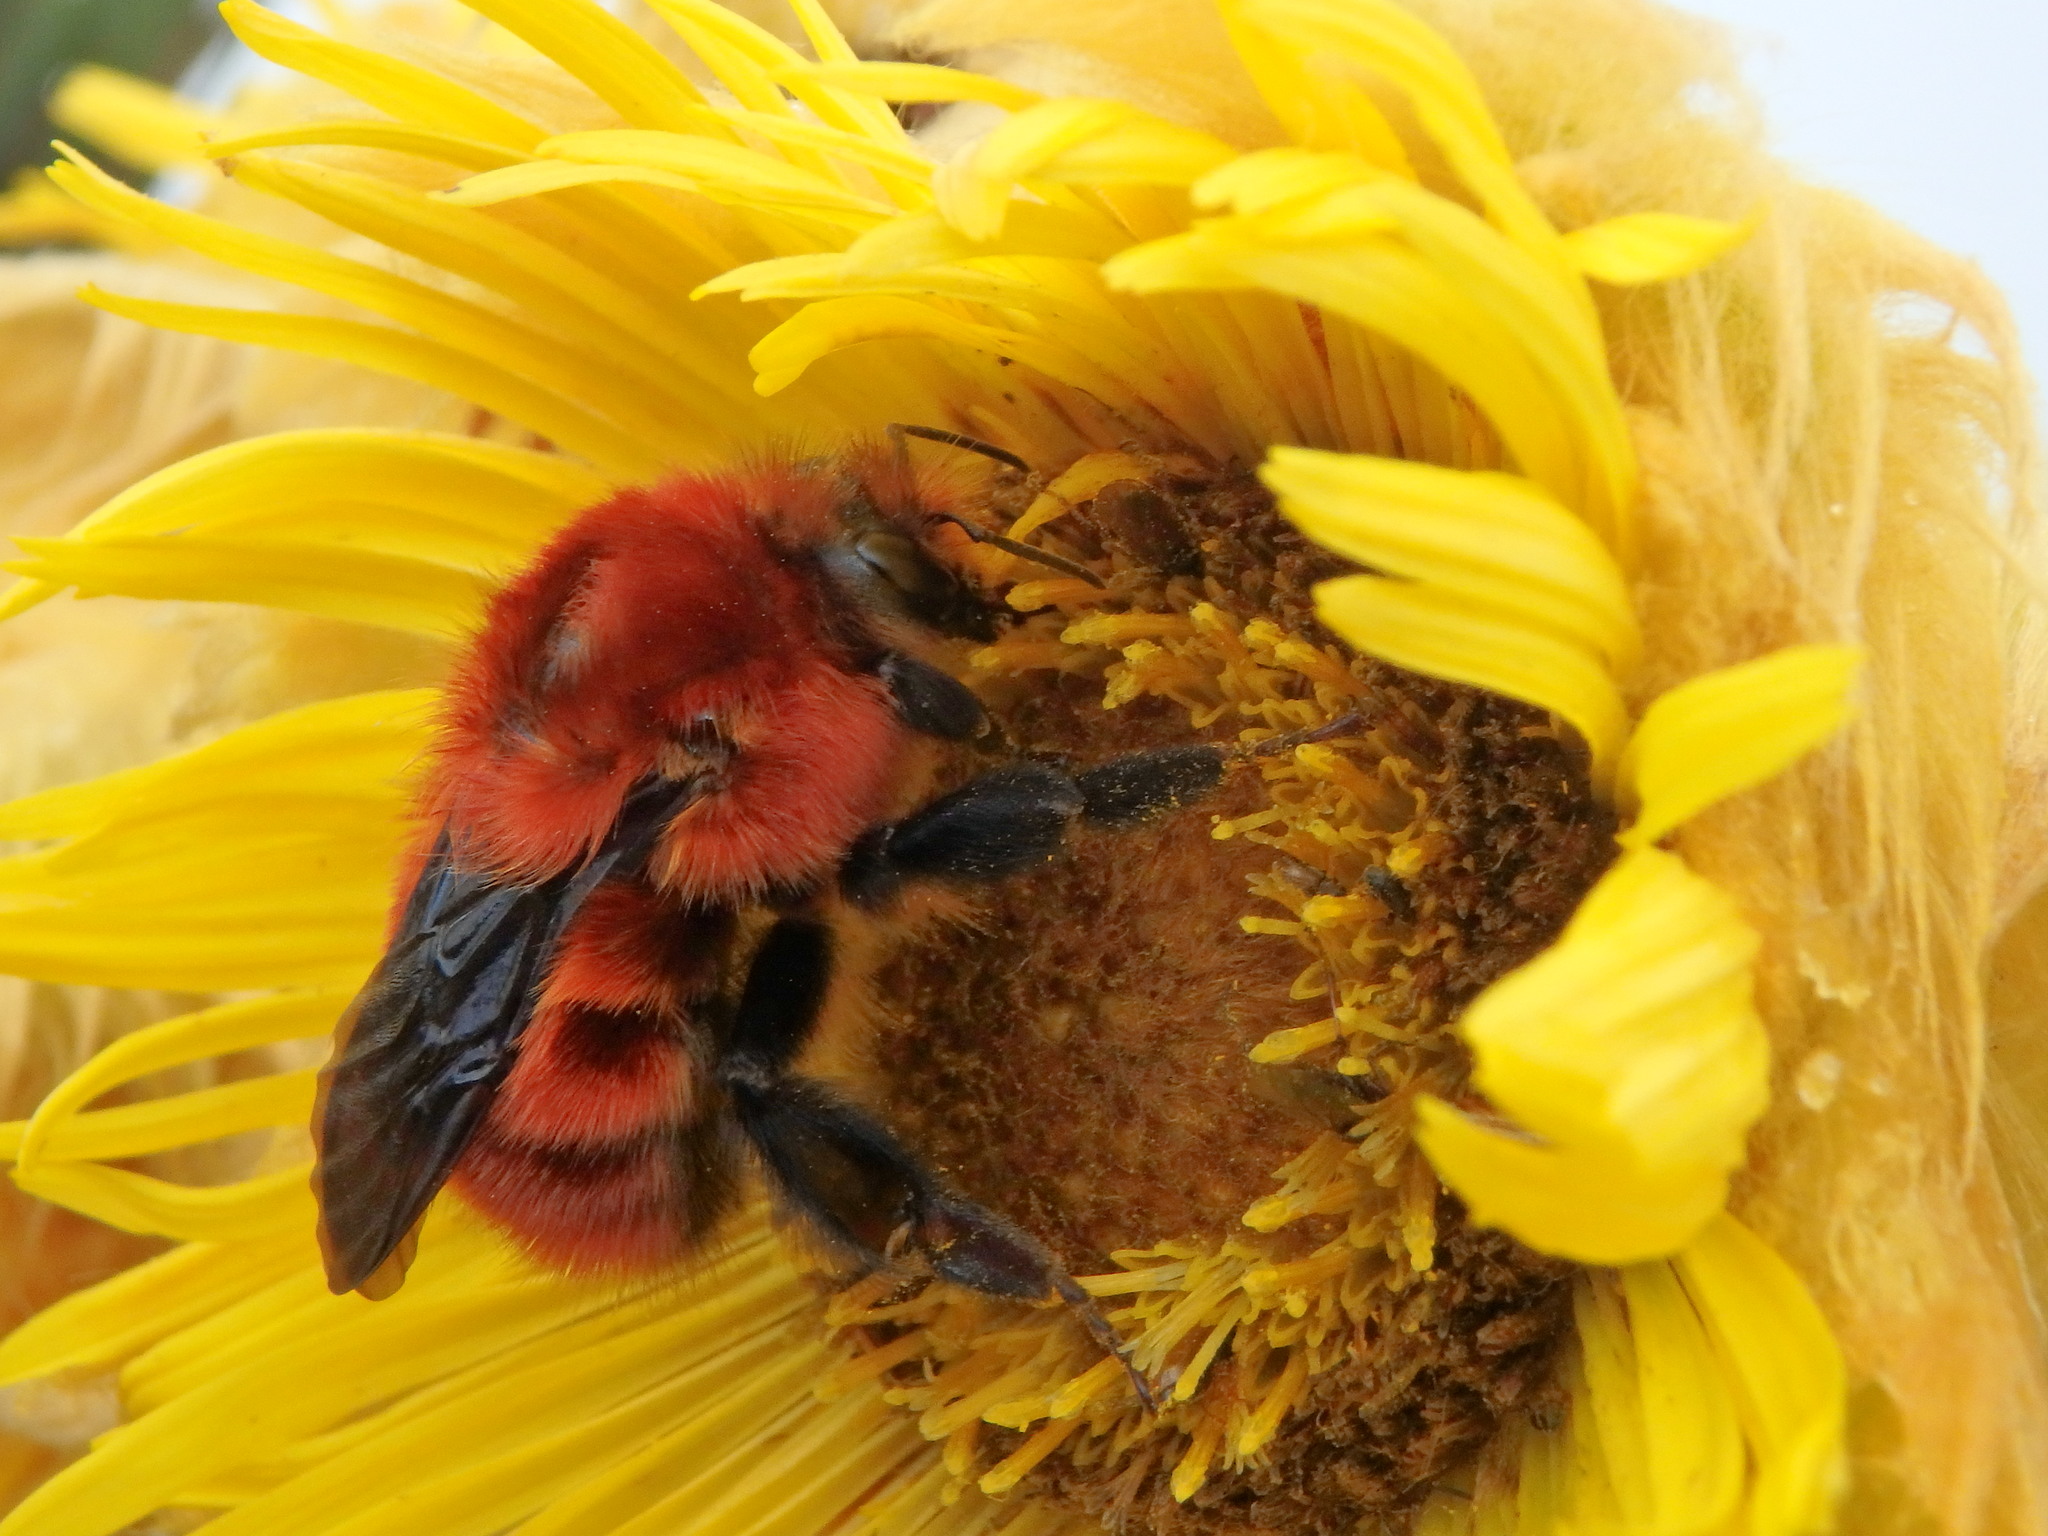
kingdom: Animalia
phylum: Arthropoda
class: Insecta
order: Hymenoptera
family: Apidae
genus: Bombus
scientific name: Bombus rubicundus
